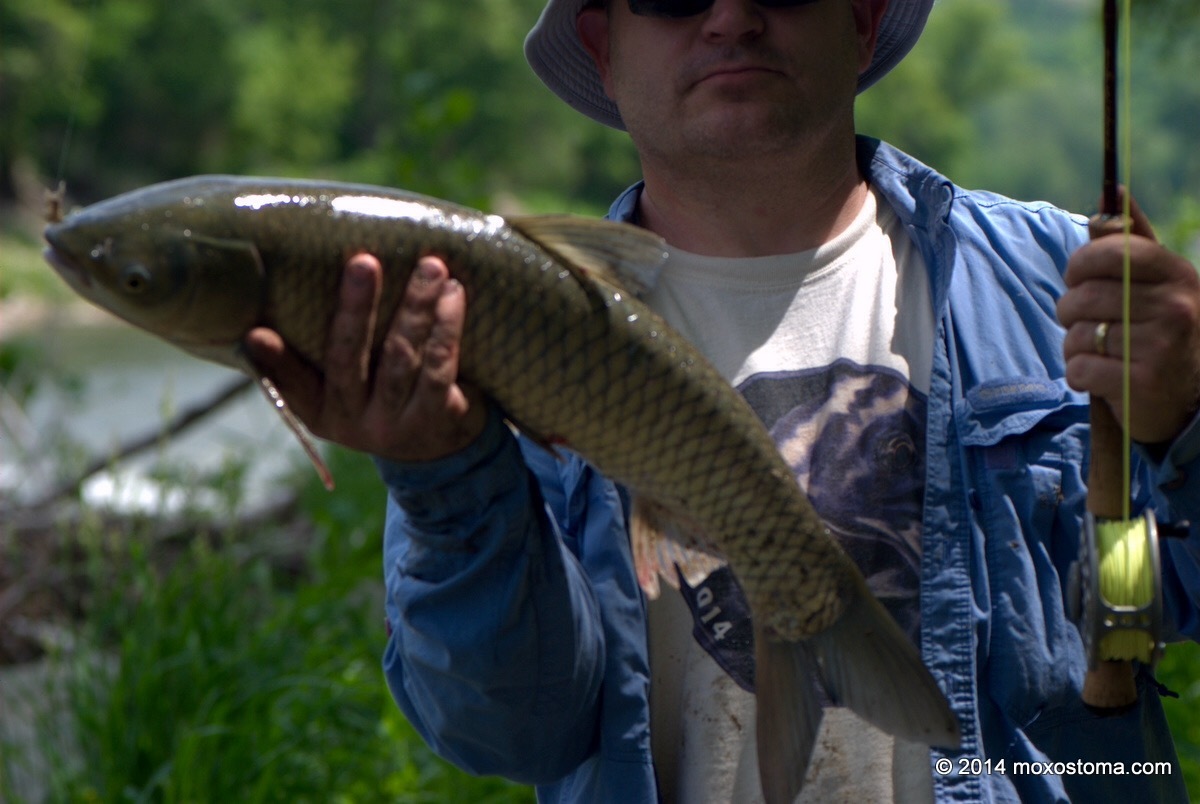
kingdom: Animalia
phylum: Chordata
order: Cypriniformes
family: Cyprinidae
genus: Ctenopharyngodon
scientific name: Ctenopharyngodon idella
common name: Grass carp
